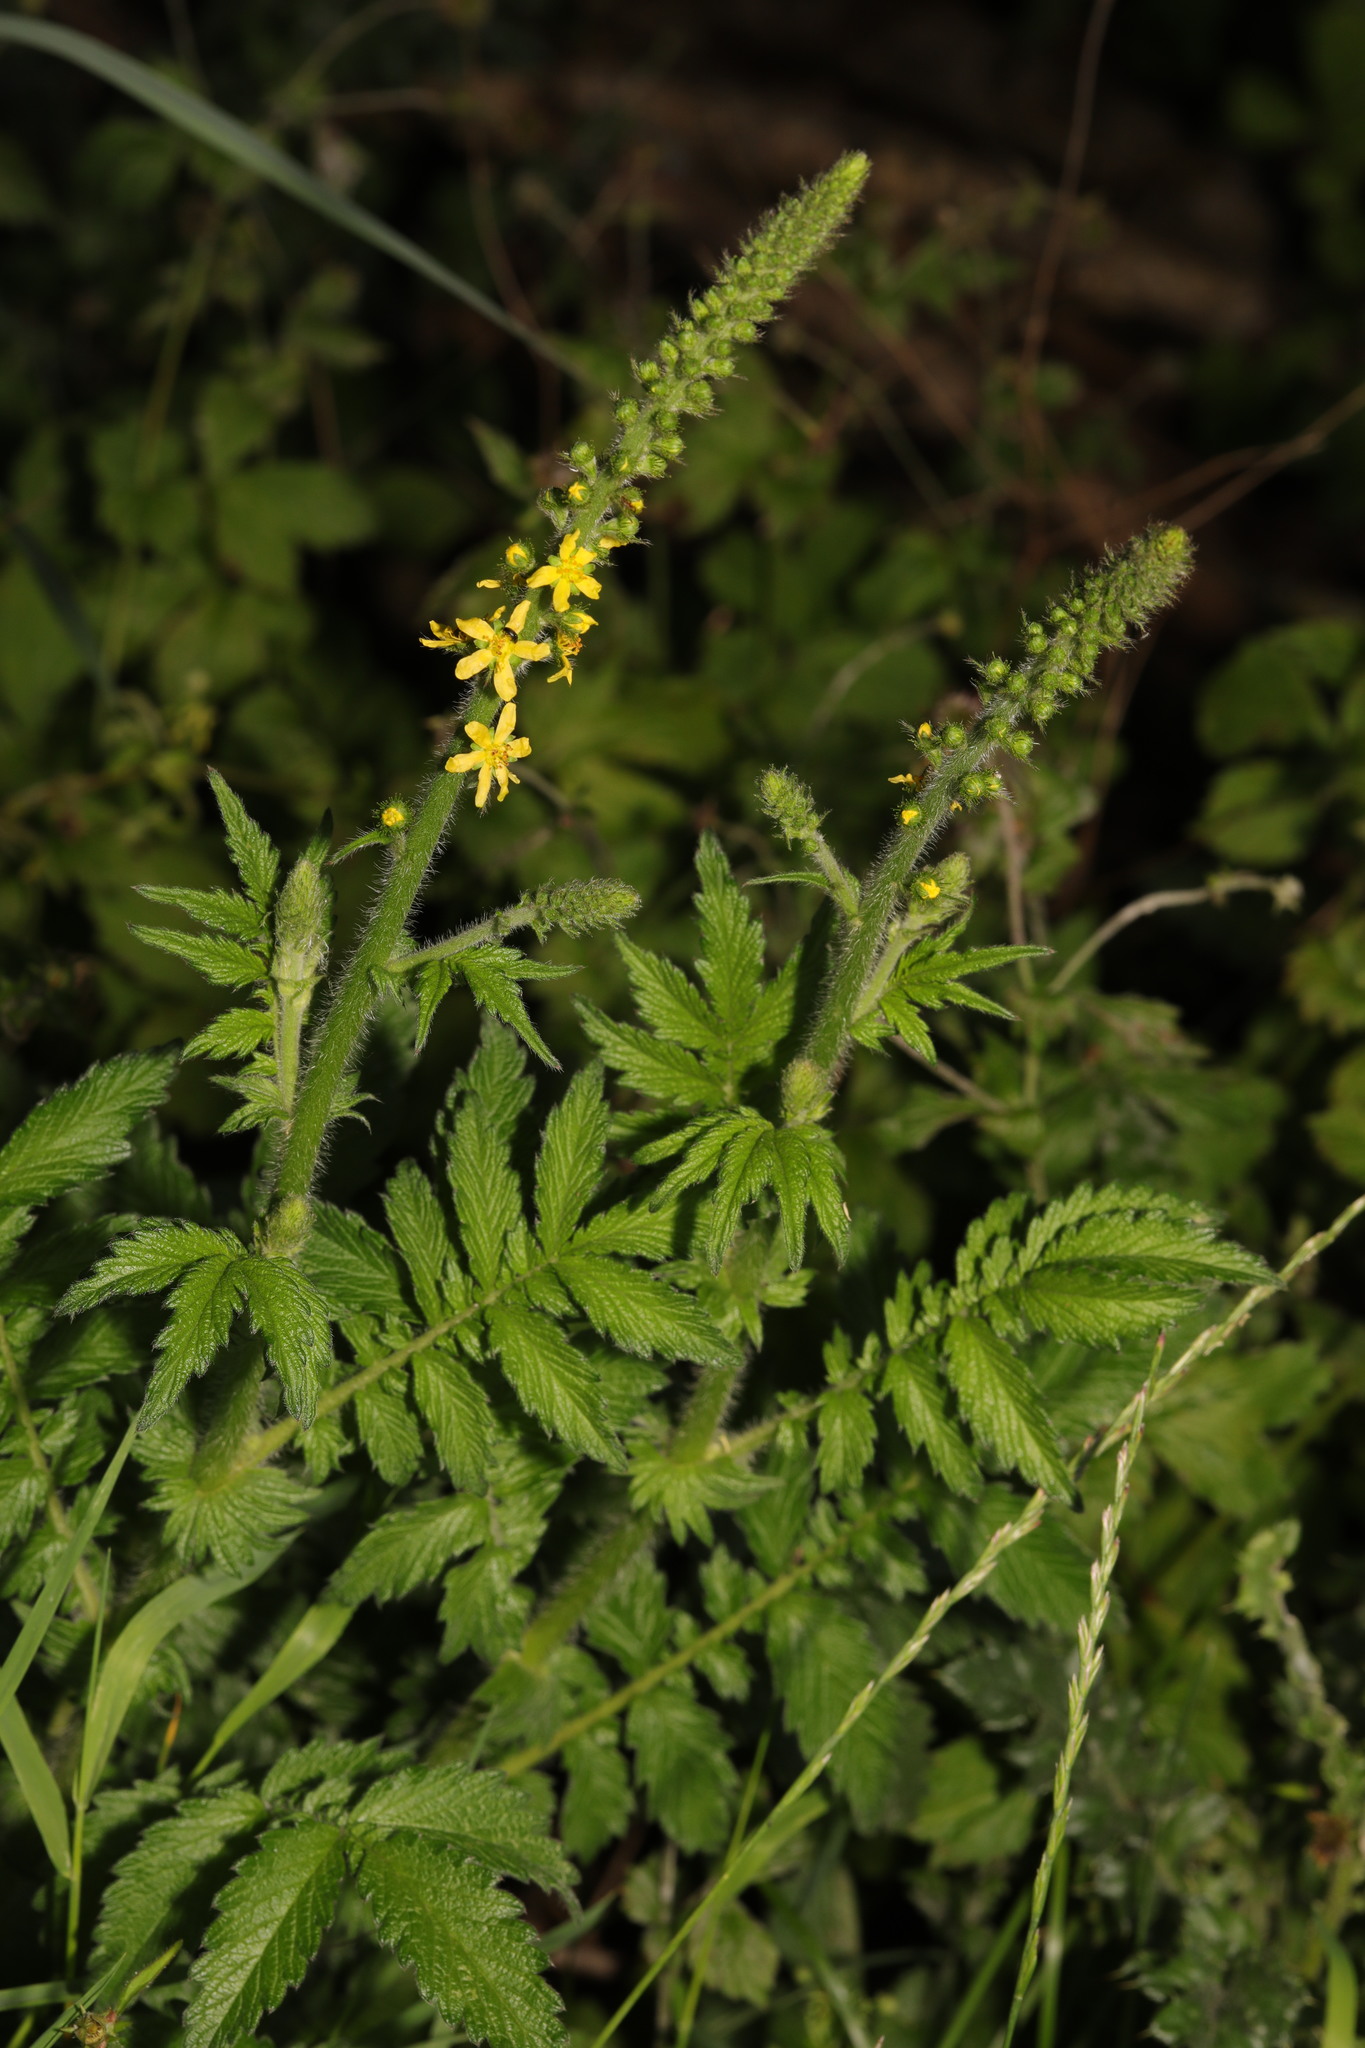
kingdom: Plantae
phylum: Tracheophyta
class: Magnoliopsida
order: Rosales
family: Rosaceae
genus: Agrimonia
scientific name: Agrimonia eupatoria
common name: Agrimony
